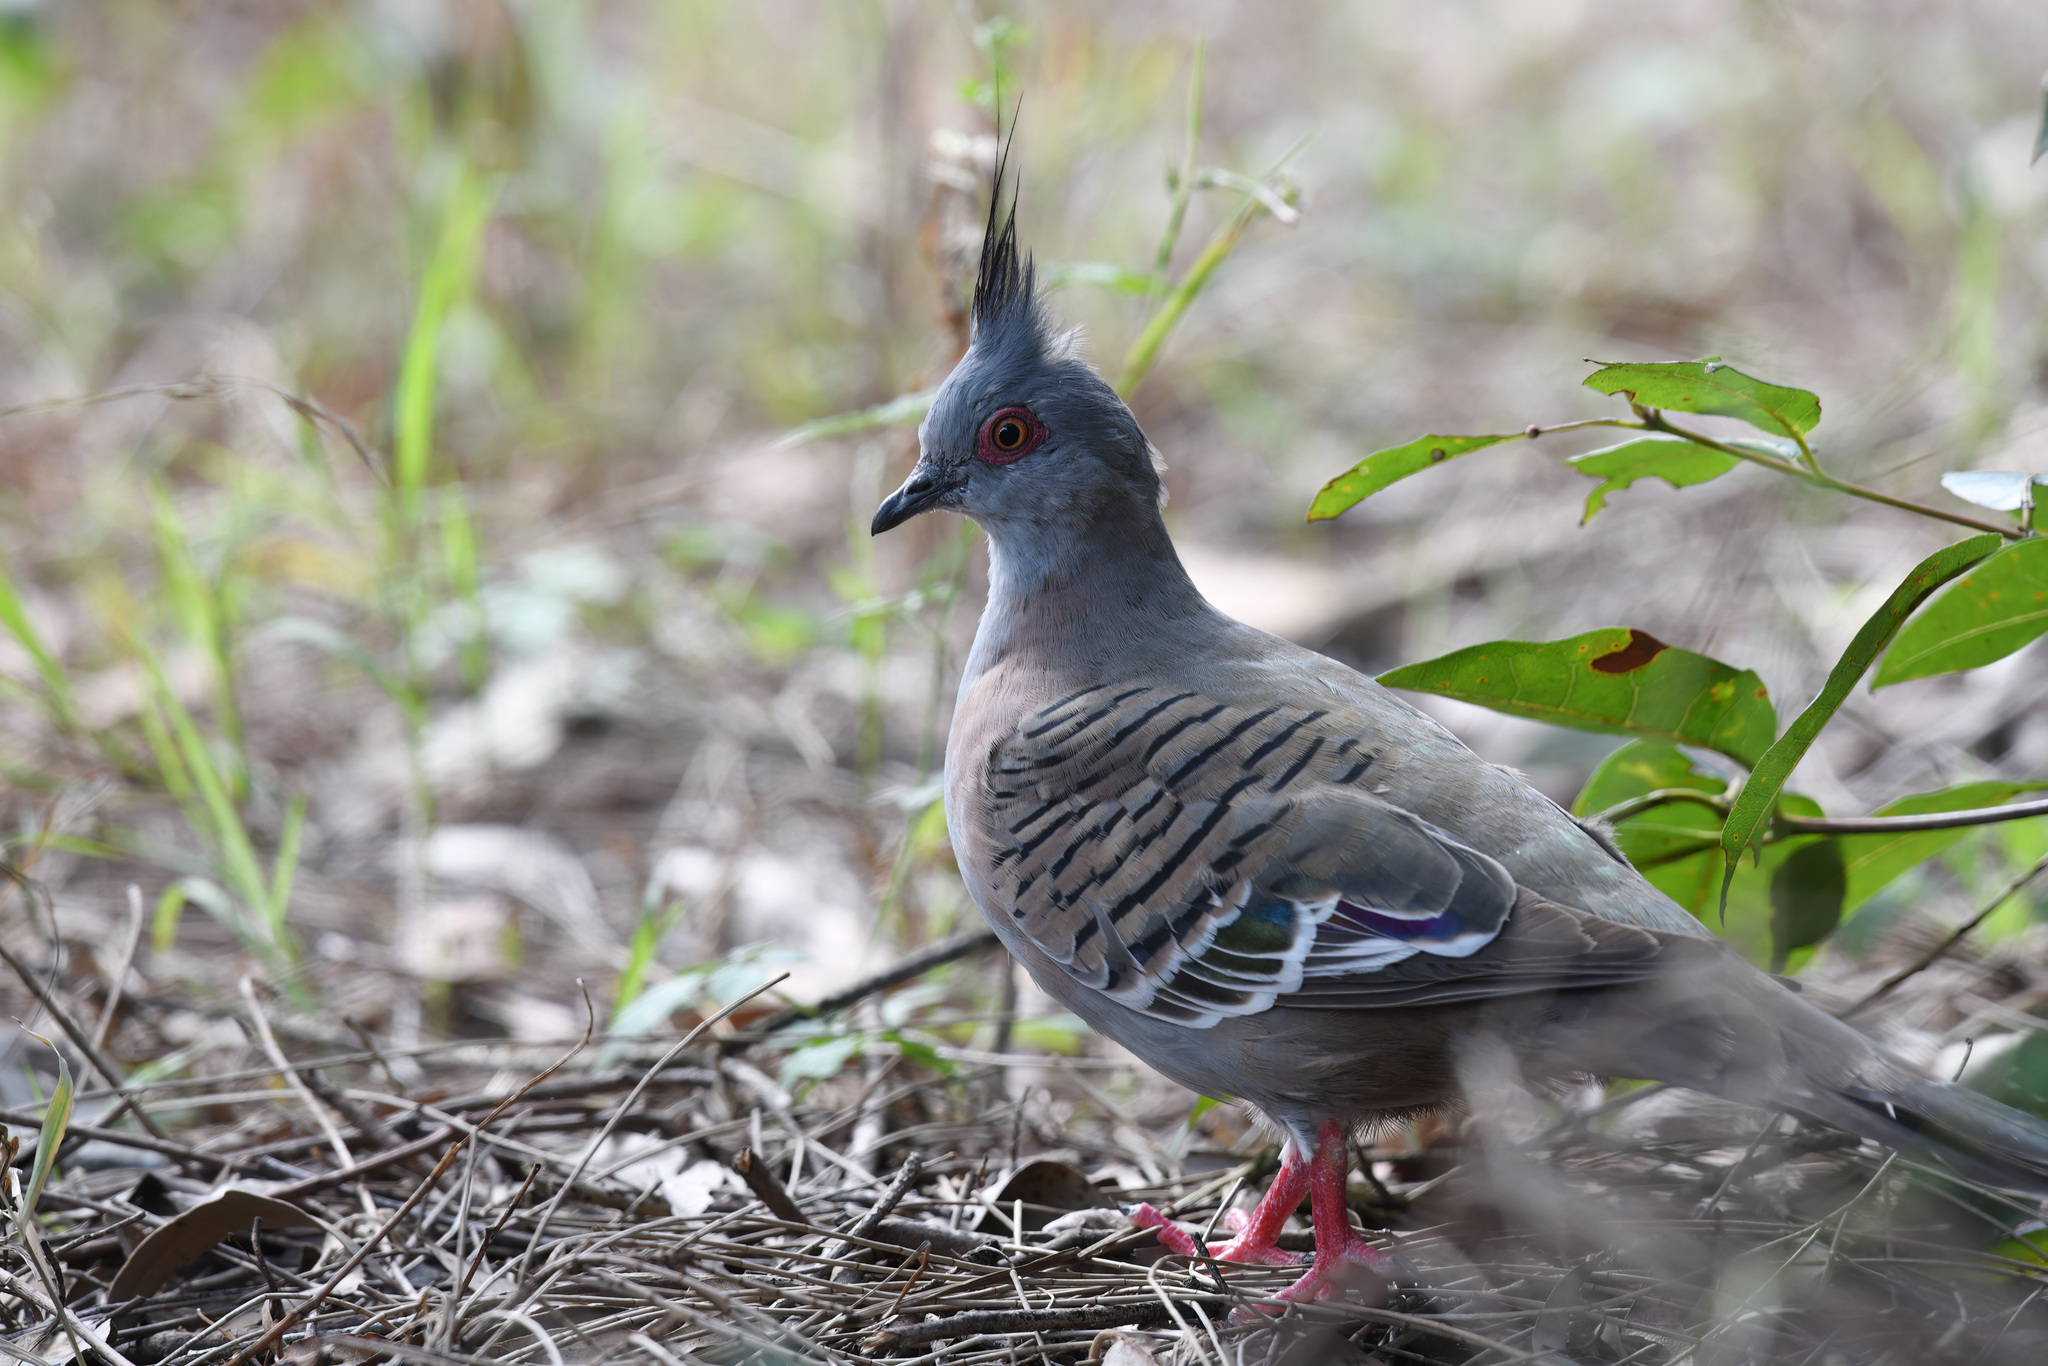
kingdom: Animalia
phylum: Chordata
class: Aves
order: Columbiformes
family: Columbidae
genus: Ocyphaps
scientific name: Ocyphaps lophotes
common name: Crested pigeon
